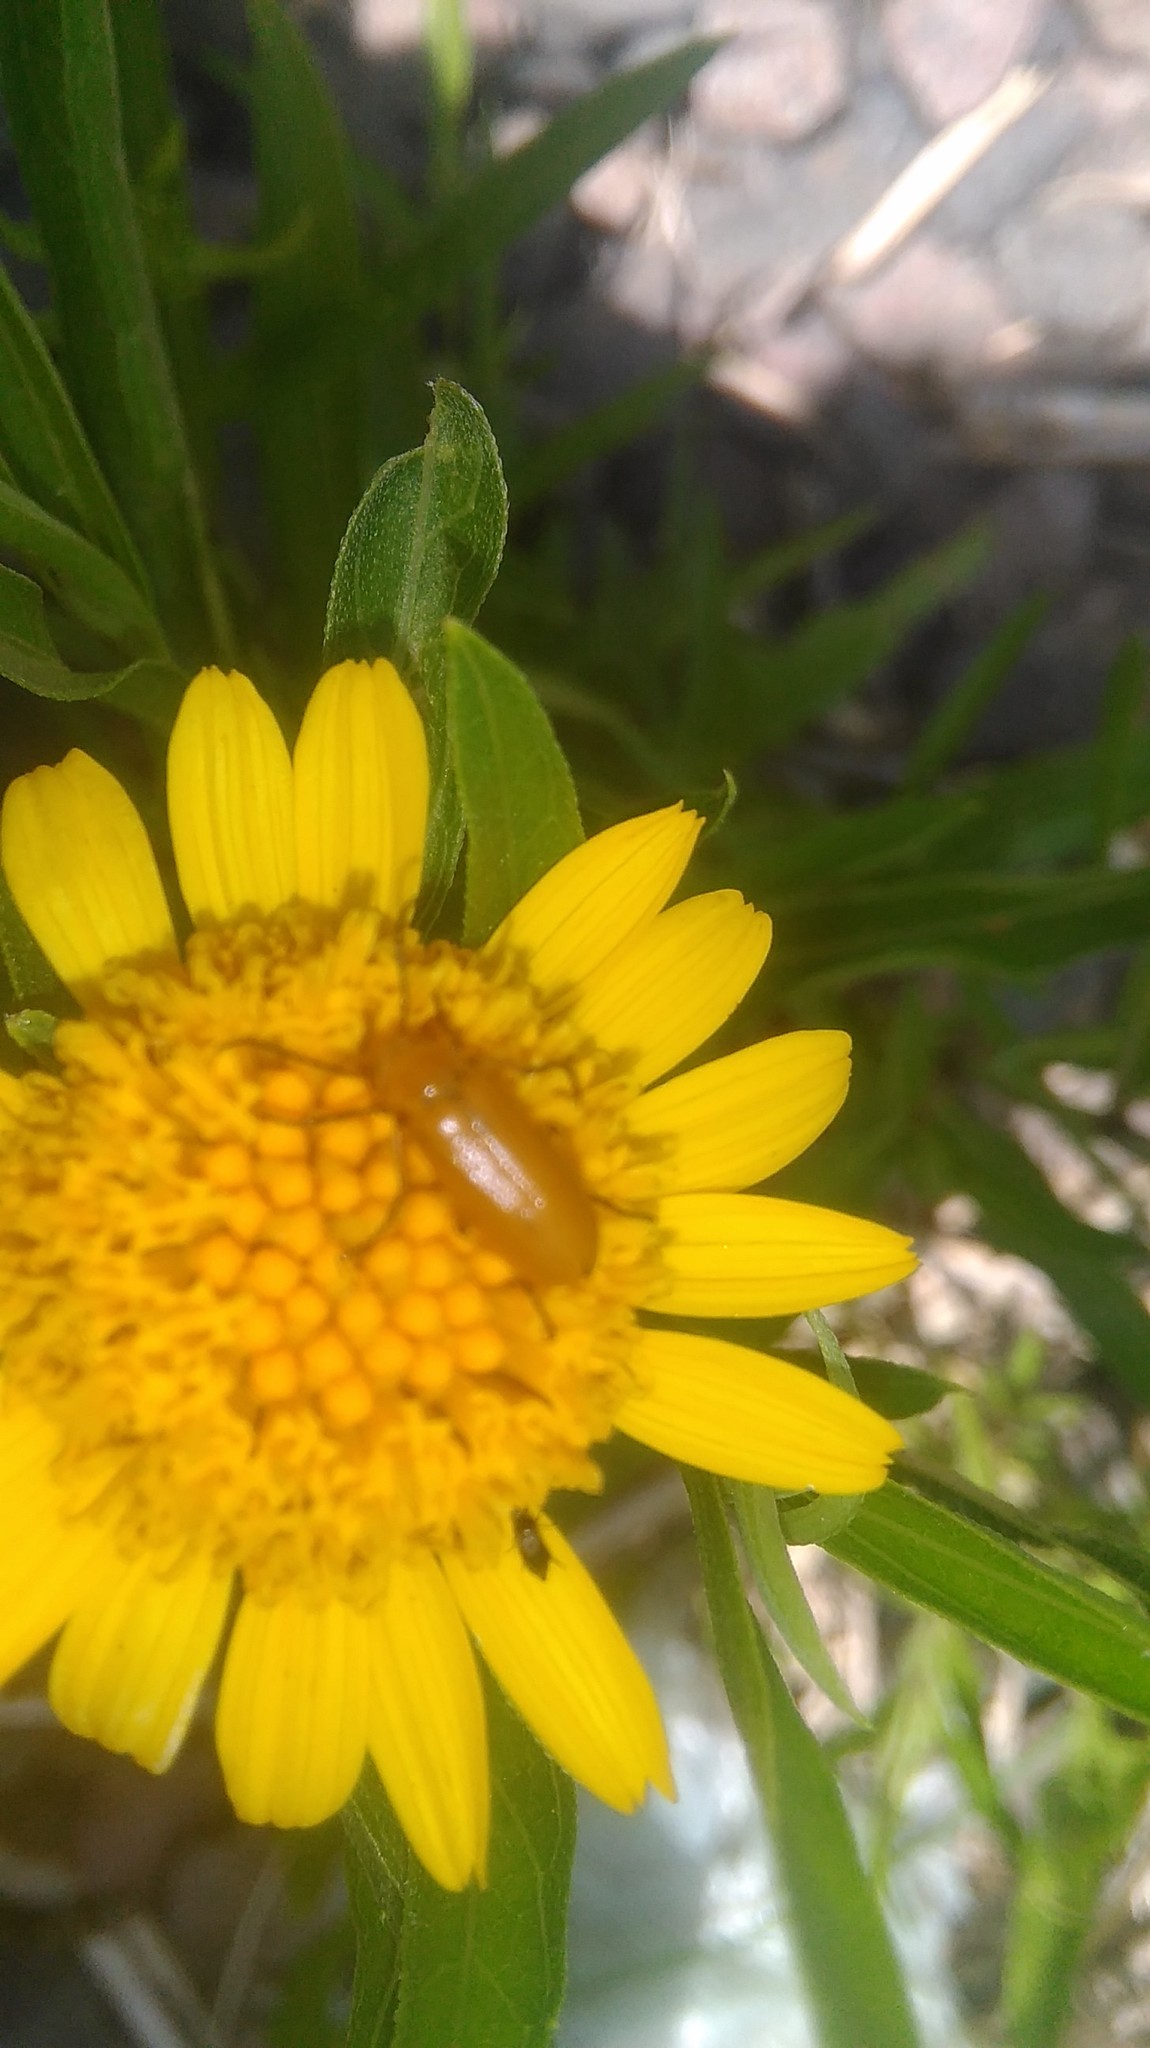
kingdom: Animalia
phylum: Arthropoda
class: Insecta
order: Coleoptera
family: Meloidae
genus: Nemognatha
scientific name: Nemognatha
